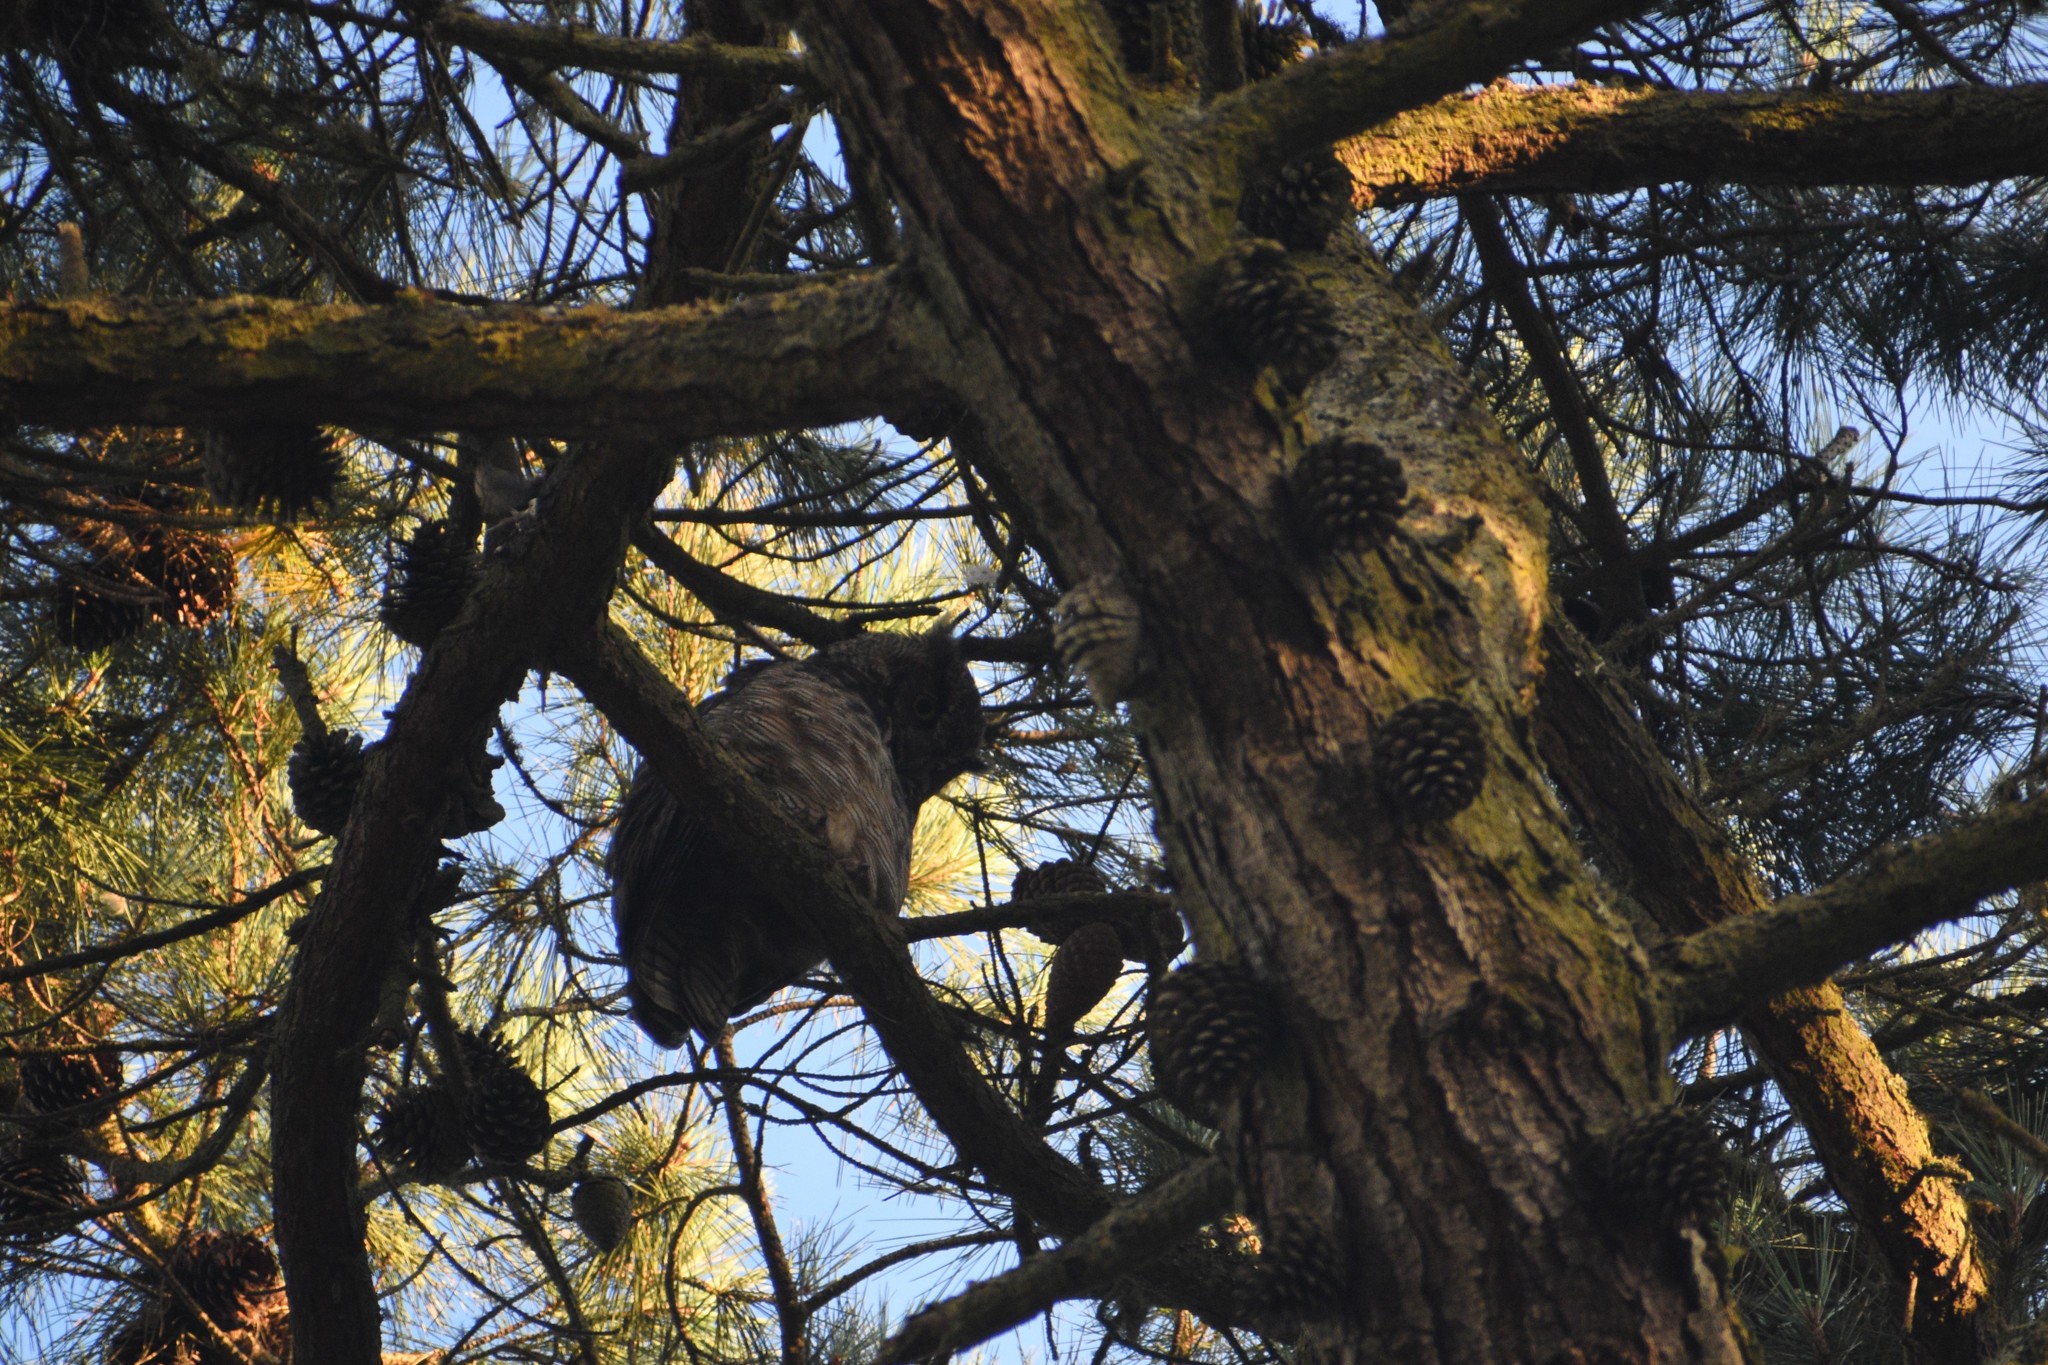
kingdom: Animalia
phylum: Chordata
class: Aves
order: Strigiformes
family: Strigidae
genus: Bubo
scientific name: Bubo virginianus
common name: Great horned owl
